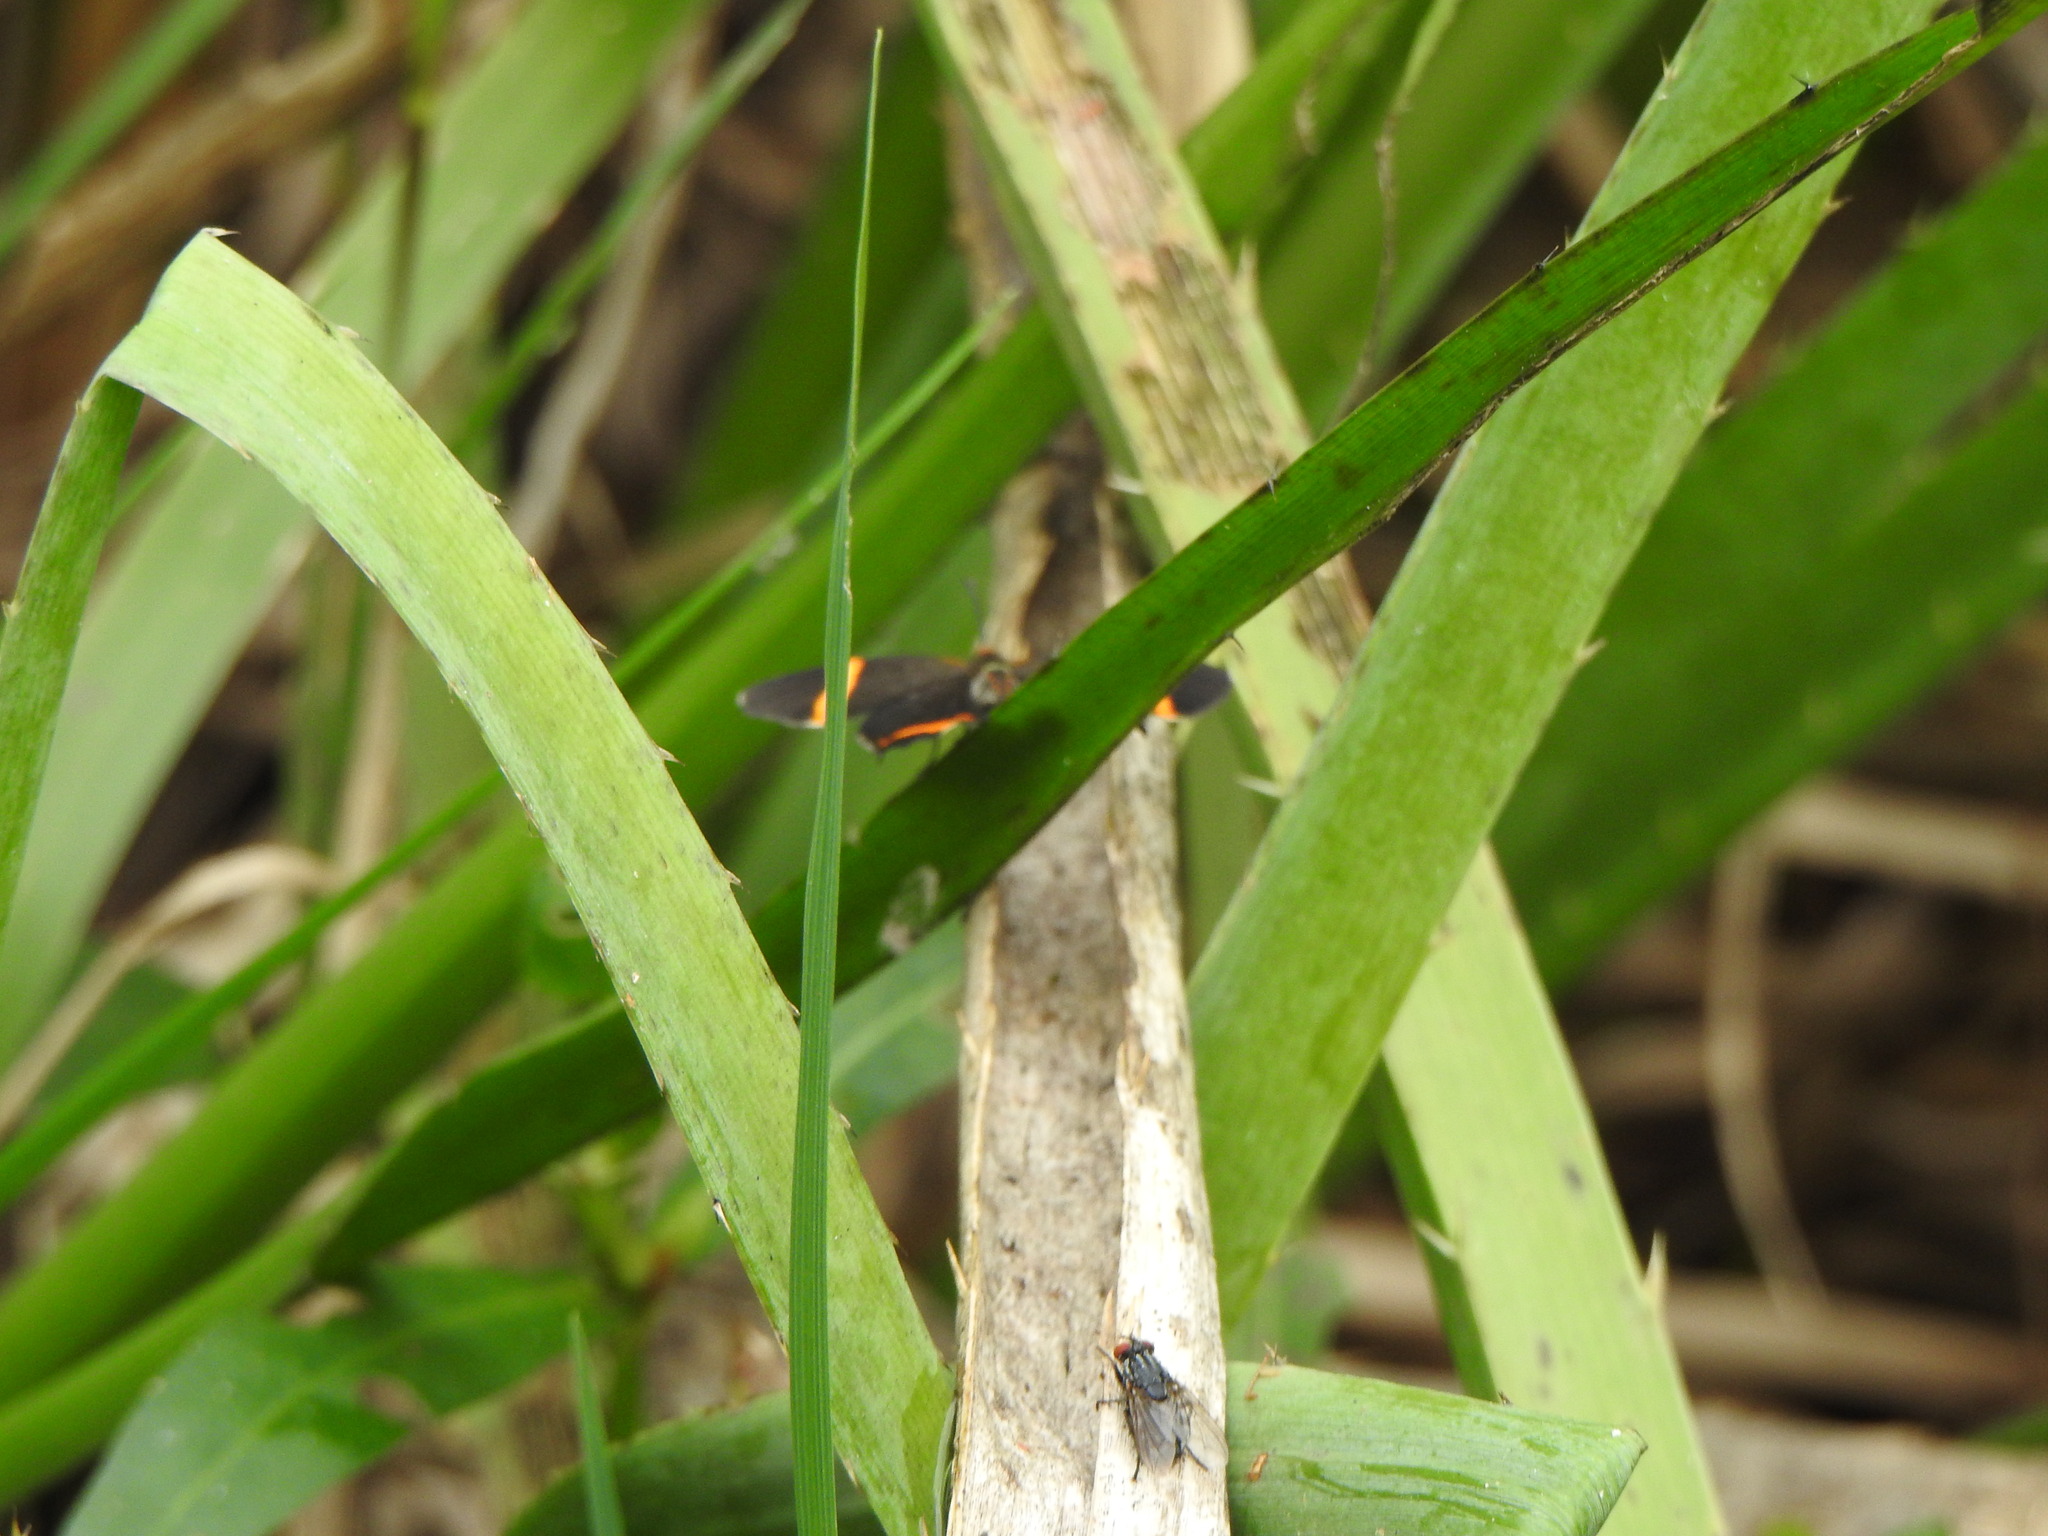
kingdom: Animalia
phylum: Arthropoda
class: Insecta
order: Lepidoptera
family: Riodinidae
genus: Riodina
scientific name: Riodina lysippoides
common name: Little dancer metalmark
